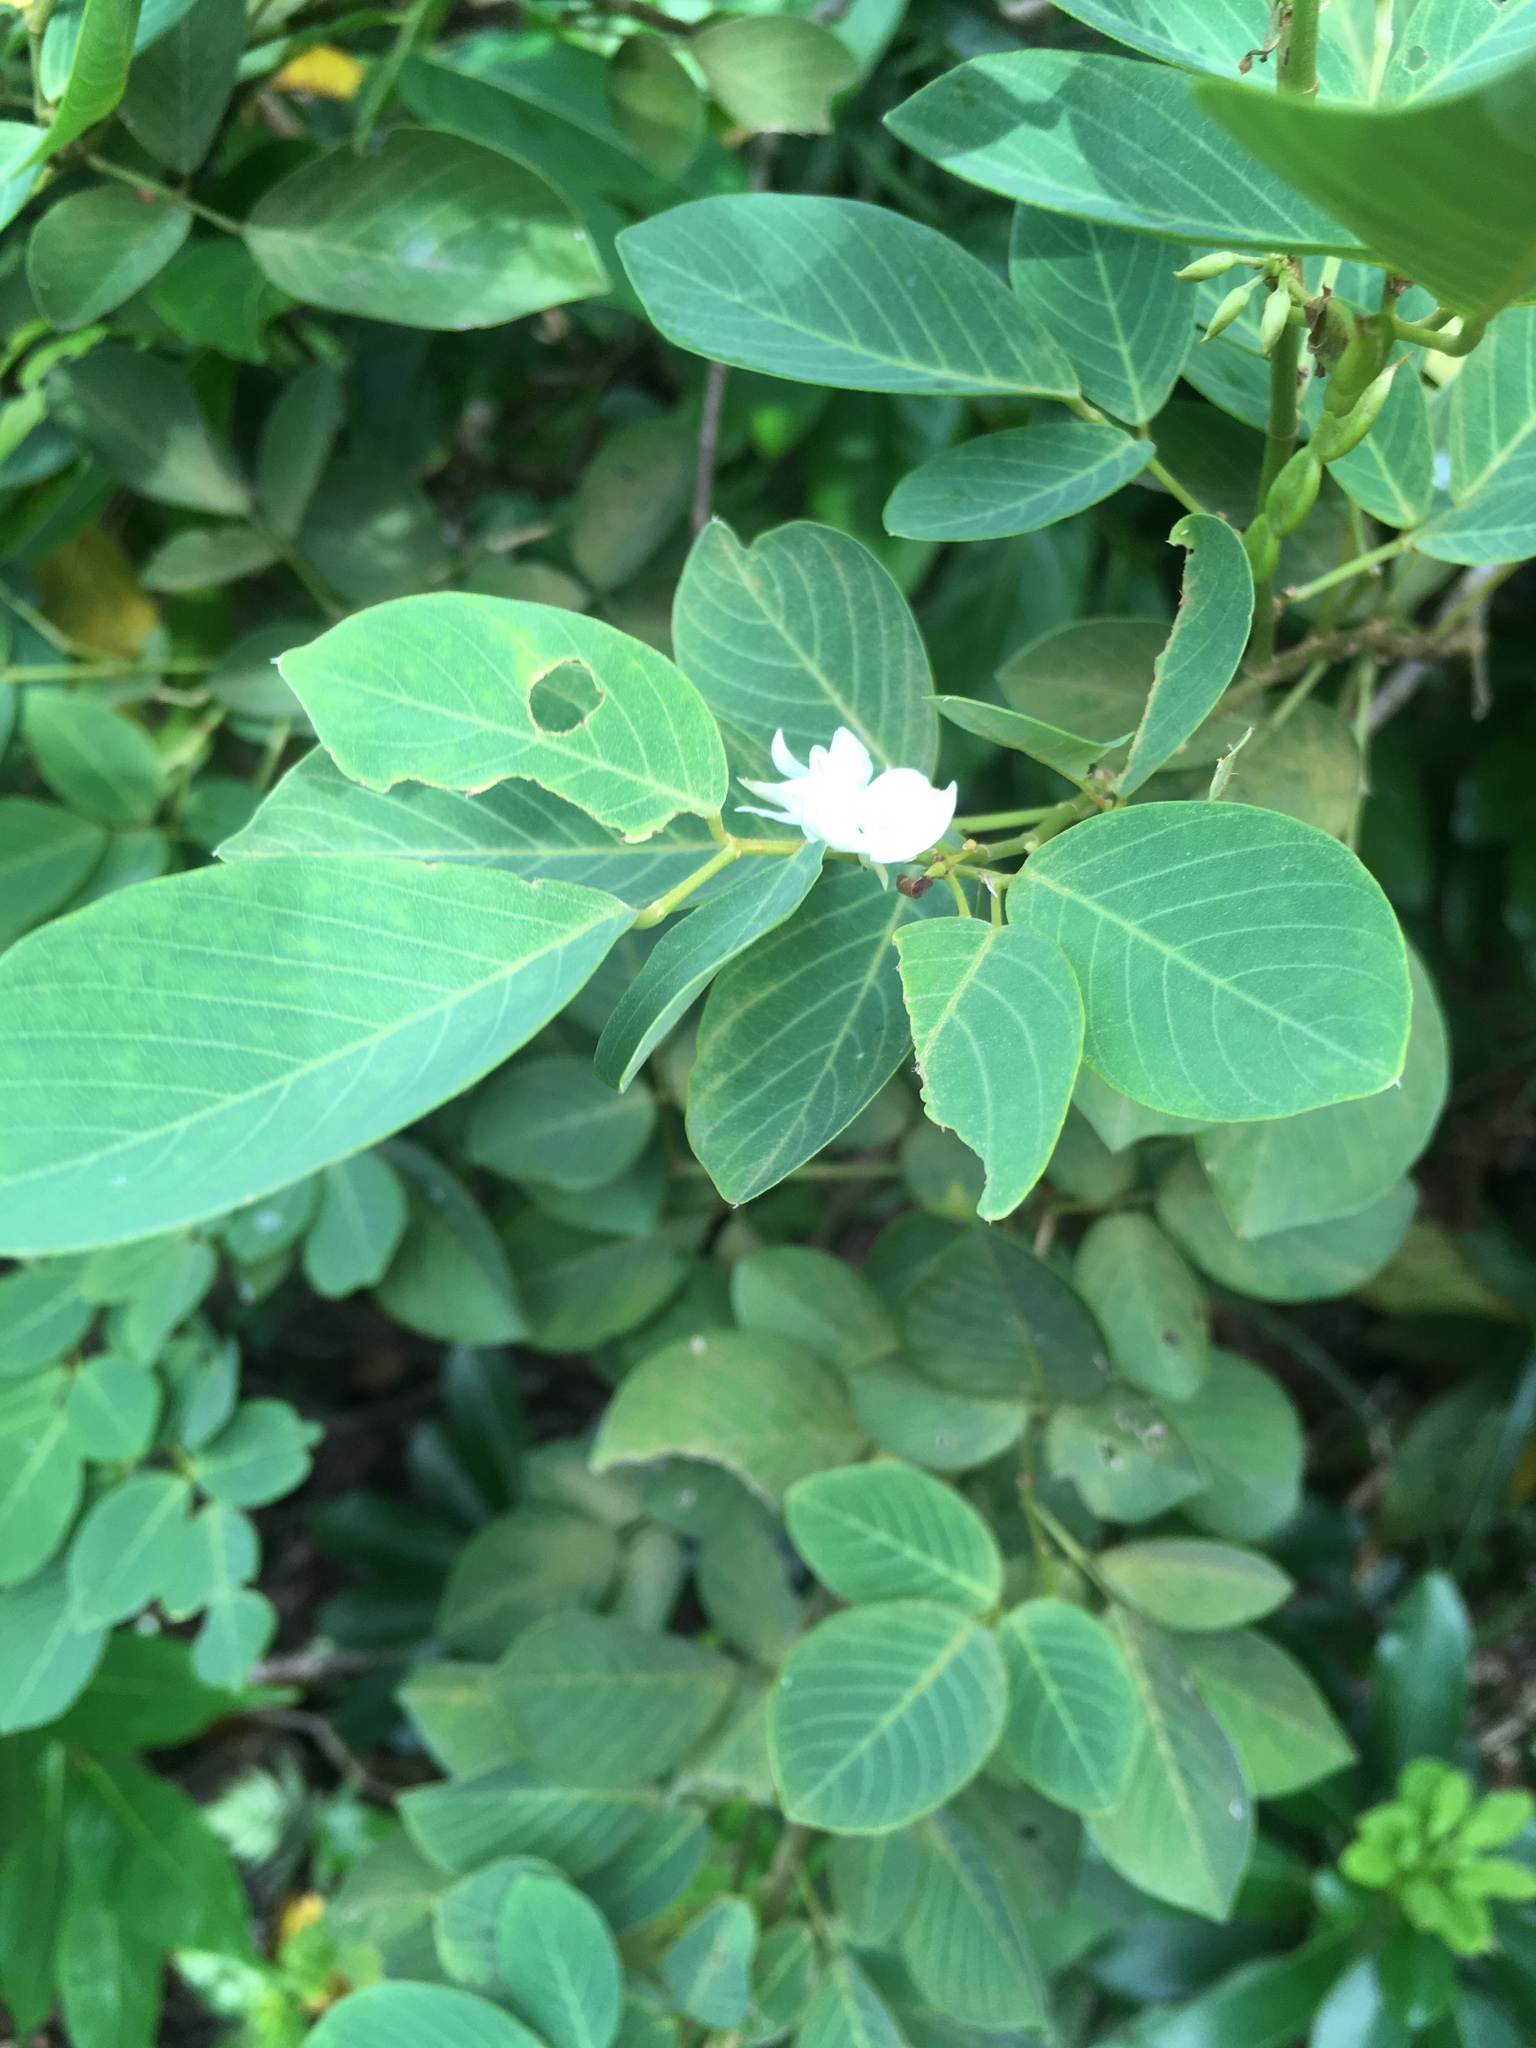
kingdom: Plantae
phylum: Tracheophyta
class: Magnoliopsida
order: Fabales
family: Fabaceae
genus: Dendrolobium
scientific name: Dendrolobium umbellatum
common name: Horsebush
